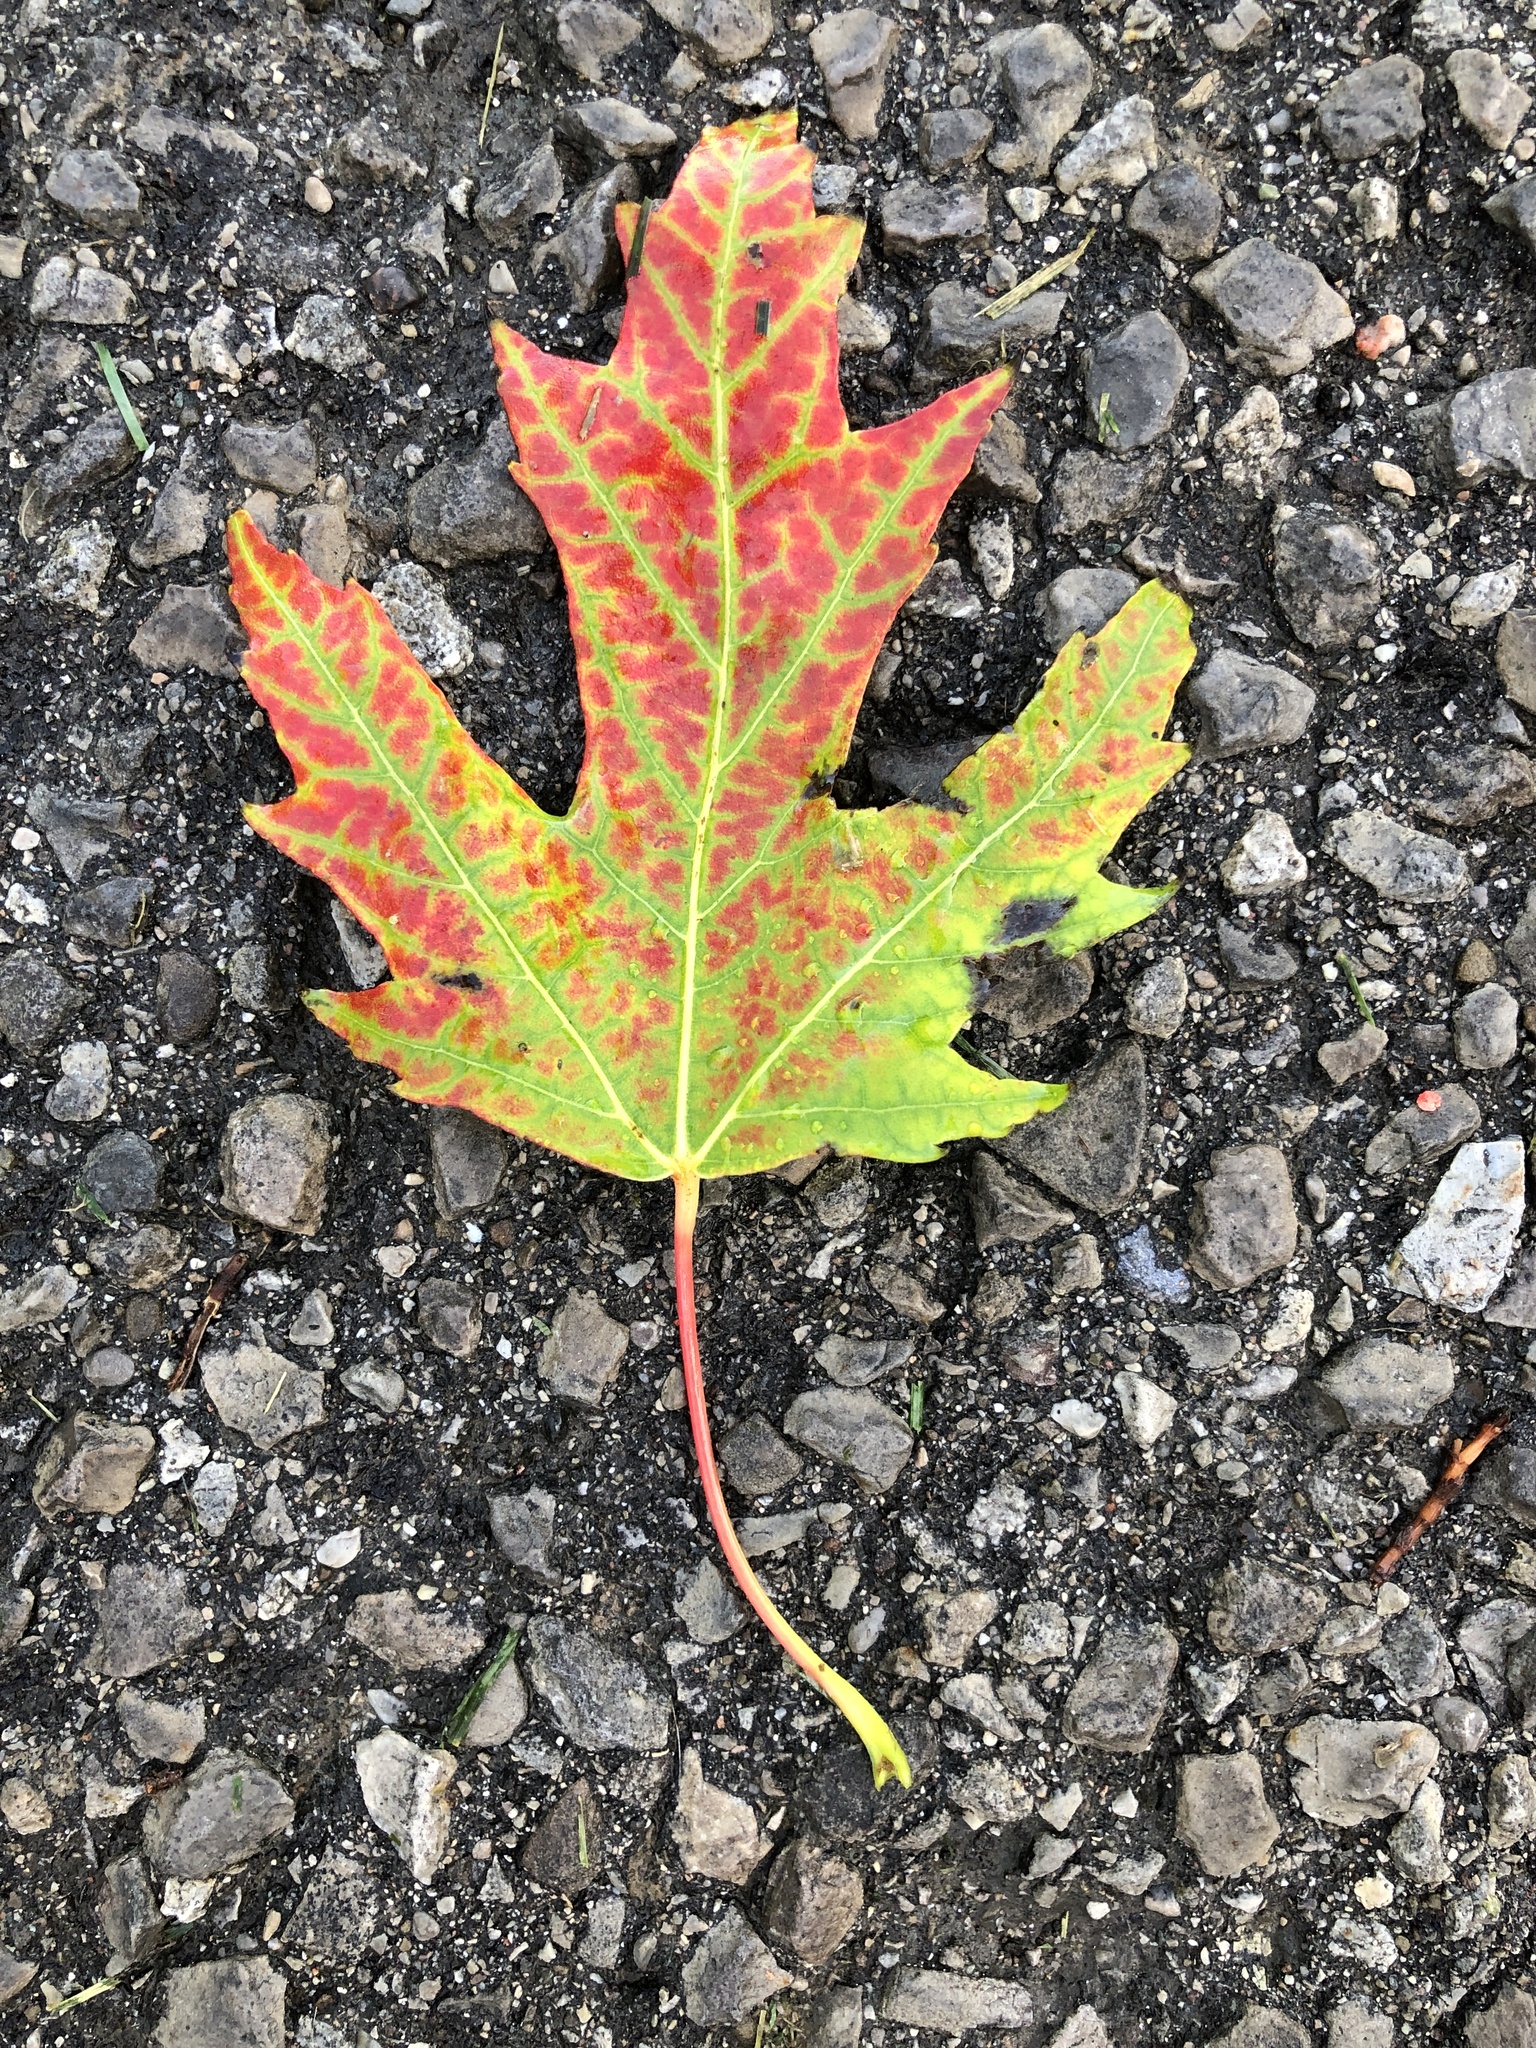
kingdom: Plantae
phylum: Tracheophyta
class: Magnoliopsida
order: Sapindales
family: Sapindaceae
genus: Acer
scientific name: Acer saccharinum
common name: Silver maple
